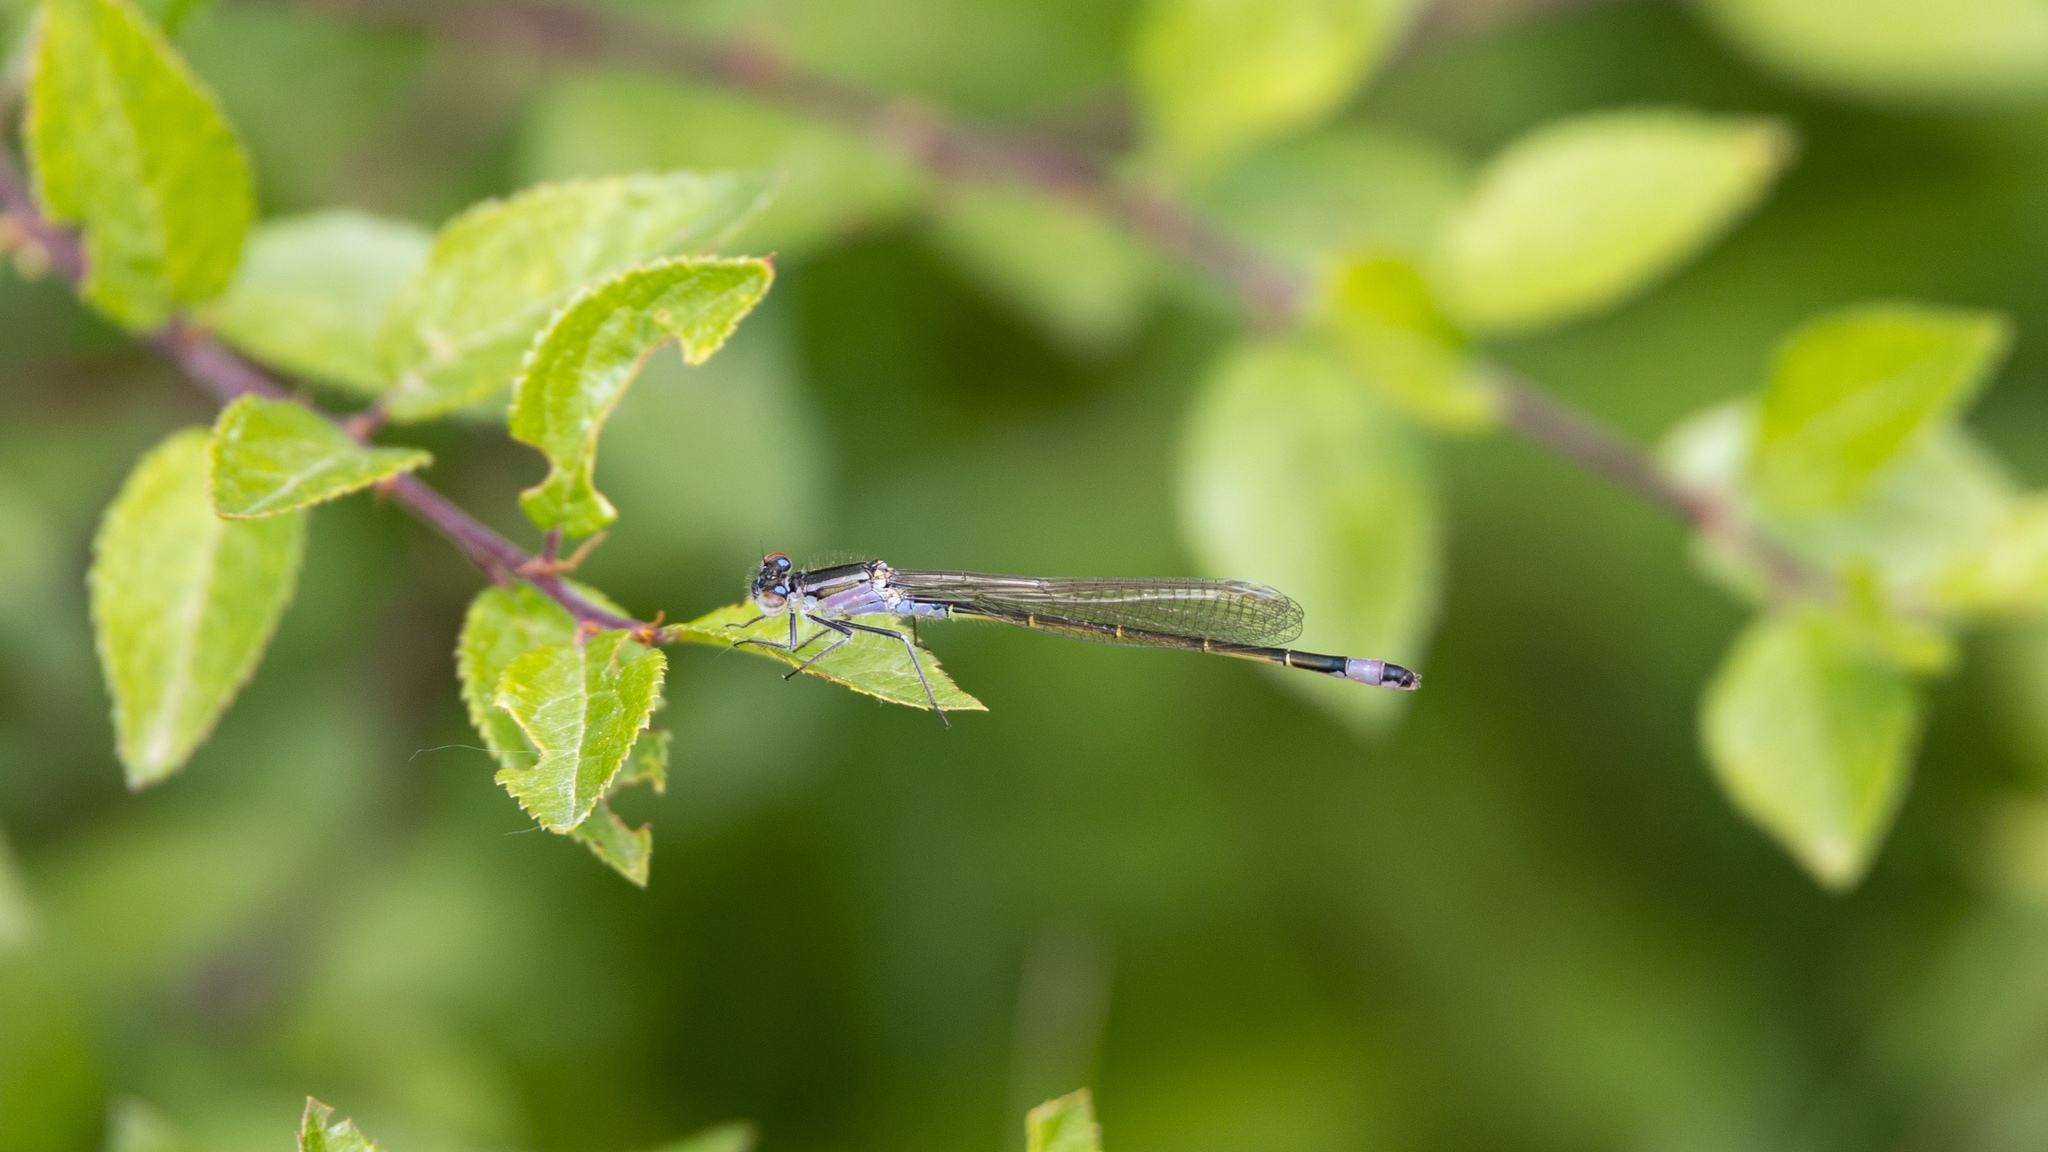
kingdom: Animalia
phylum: Arthropoda
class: Insecta
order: Odonata
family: Coenagrionidae
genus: Ischnura
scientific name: Ischnura elegans
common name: Blue-tailed damselfly
